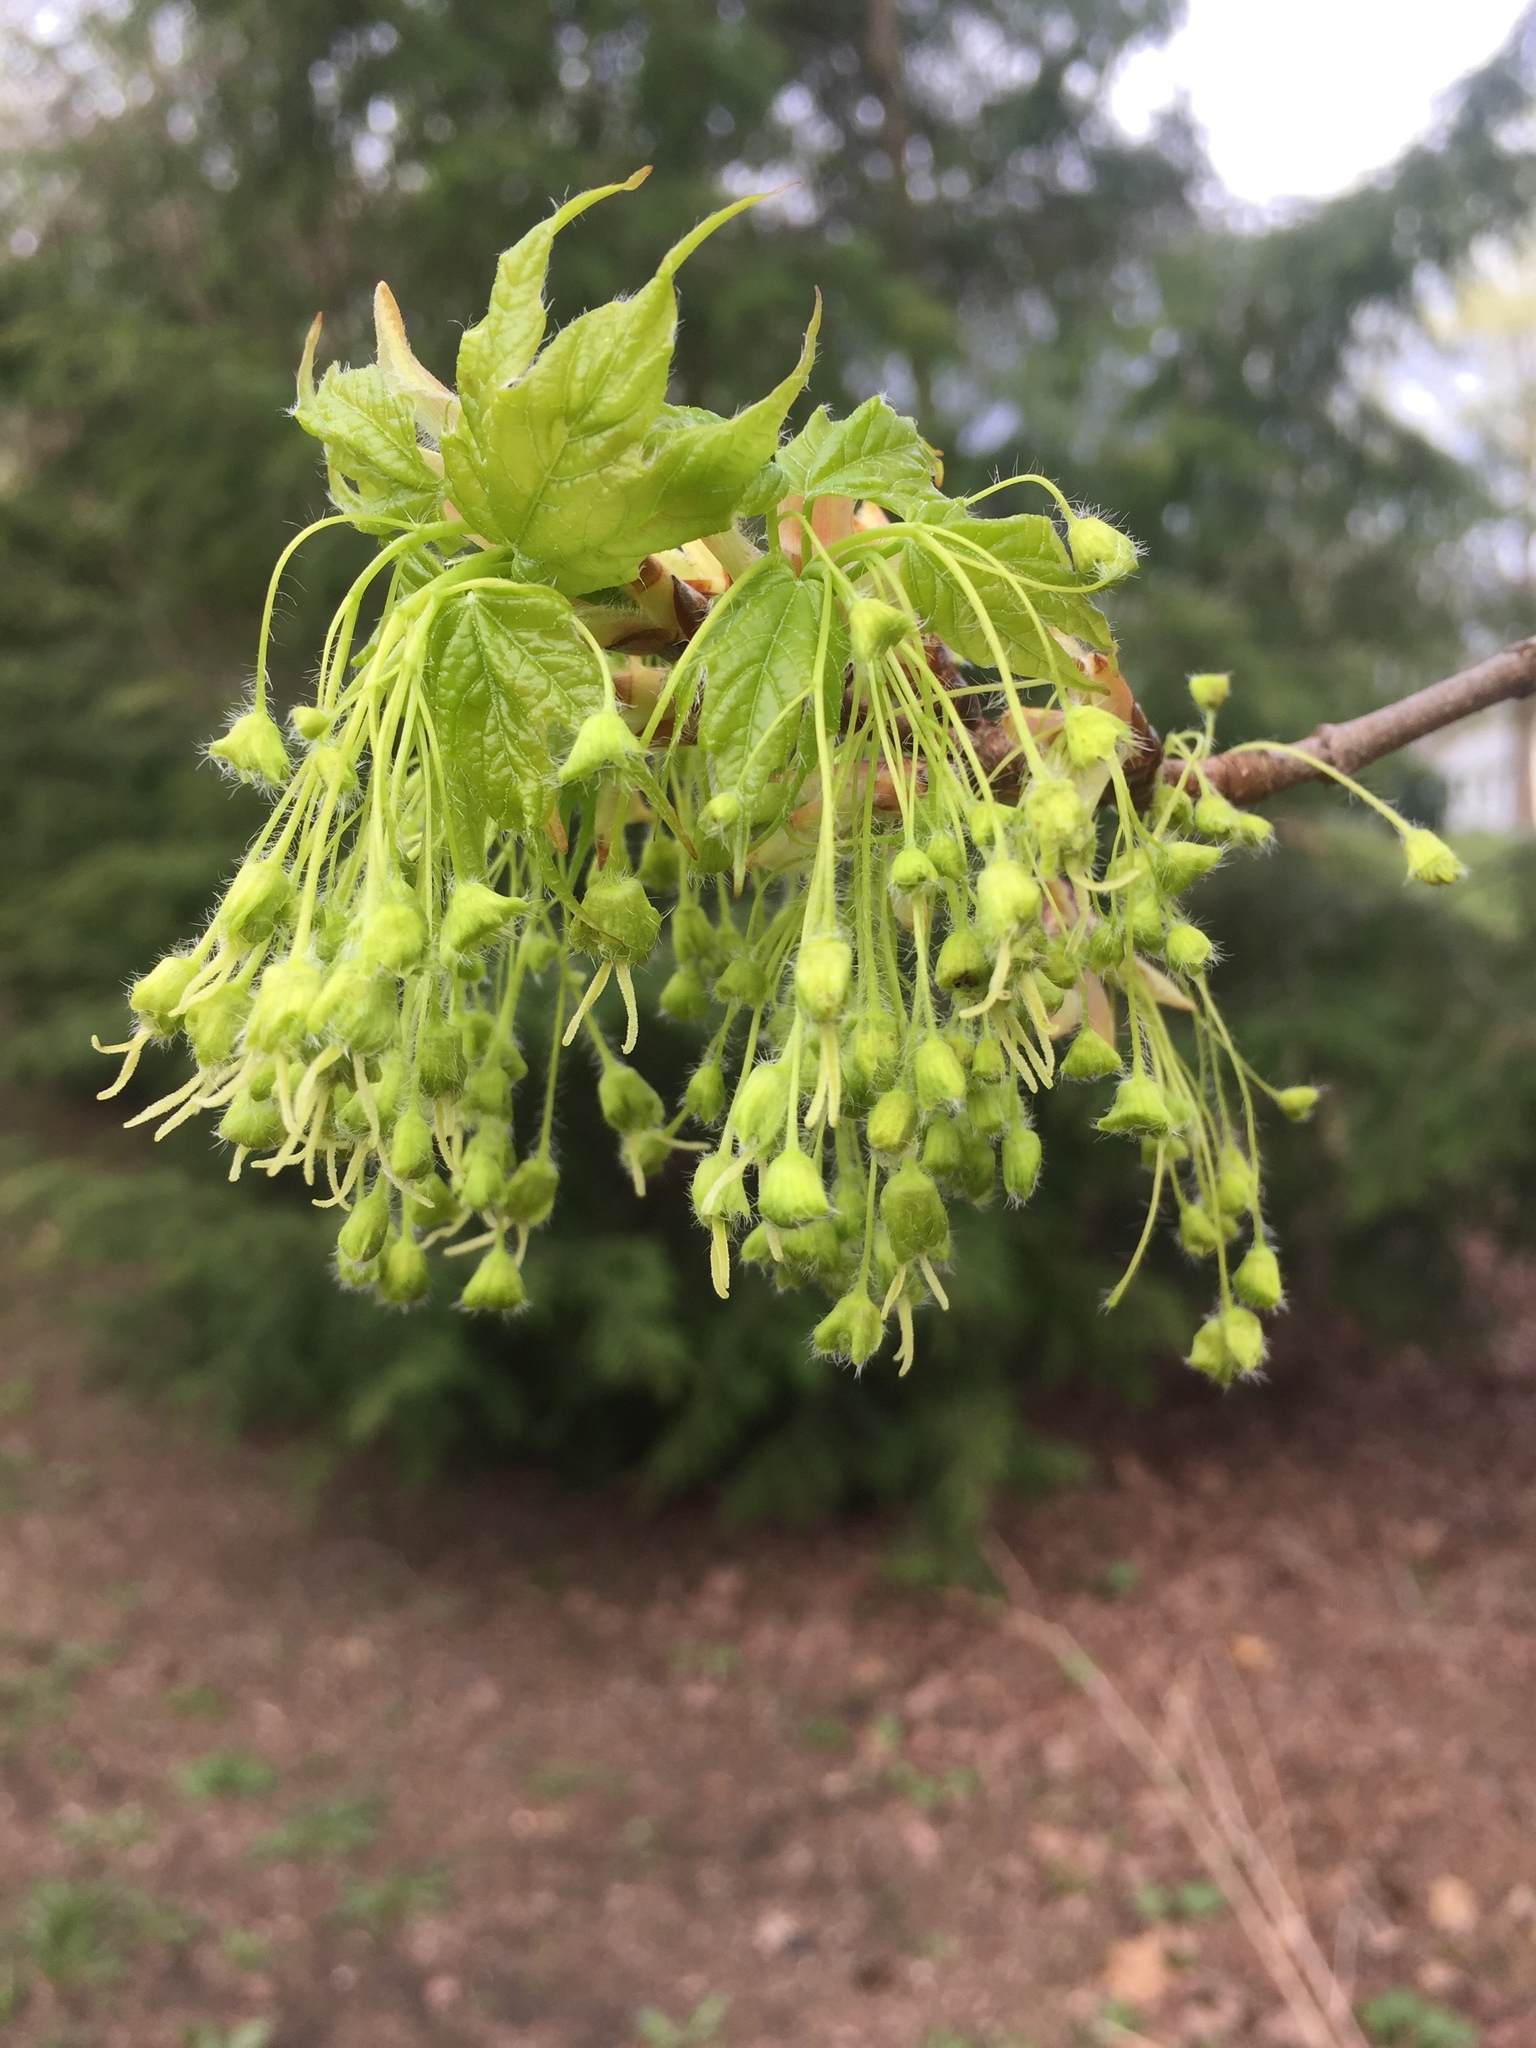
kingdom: Plantae
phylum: Tracheophyta
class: Magnoliopsida
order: Sapindales
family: Sapindaceae
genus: Acer
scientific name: Acer saccharum
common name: Sugar maple
